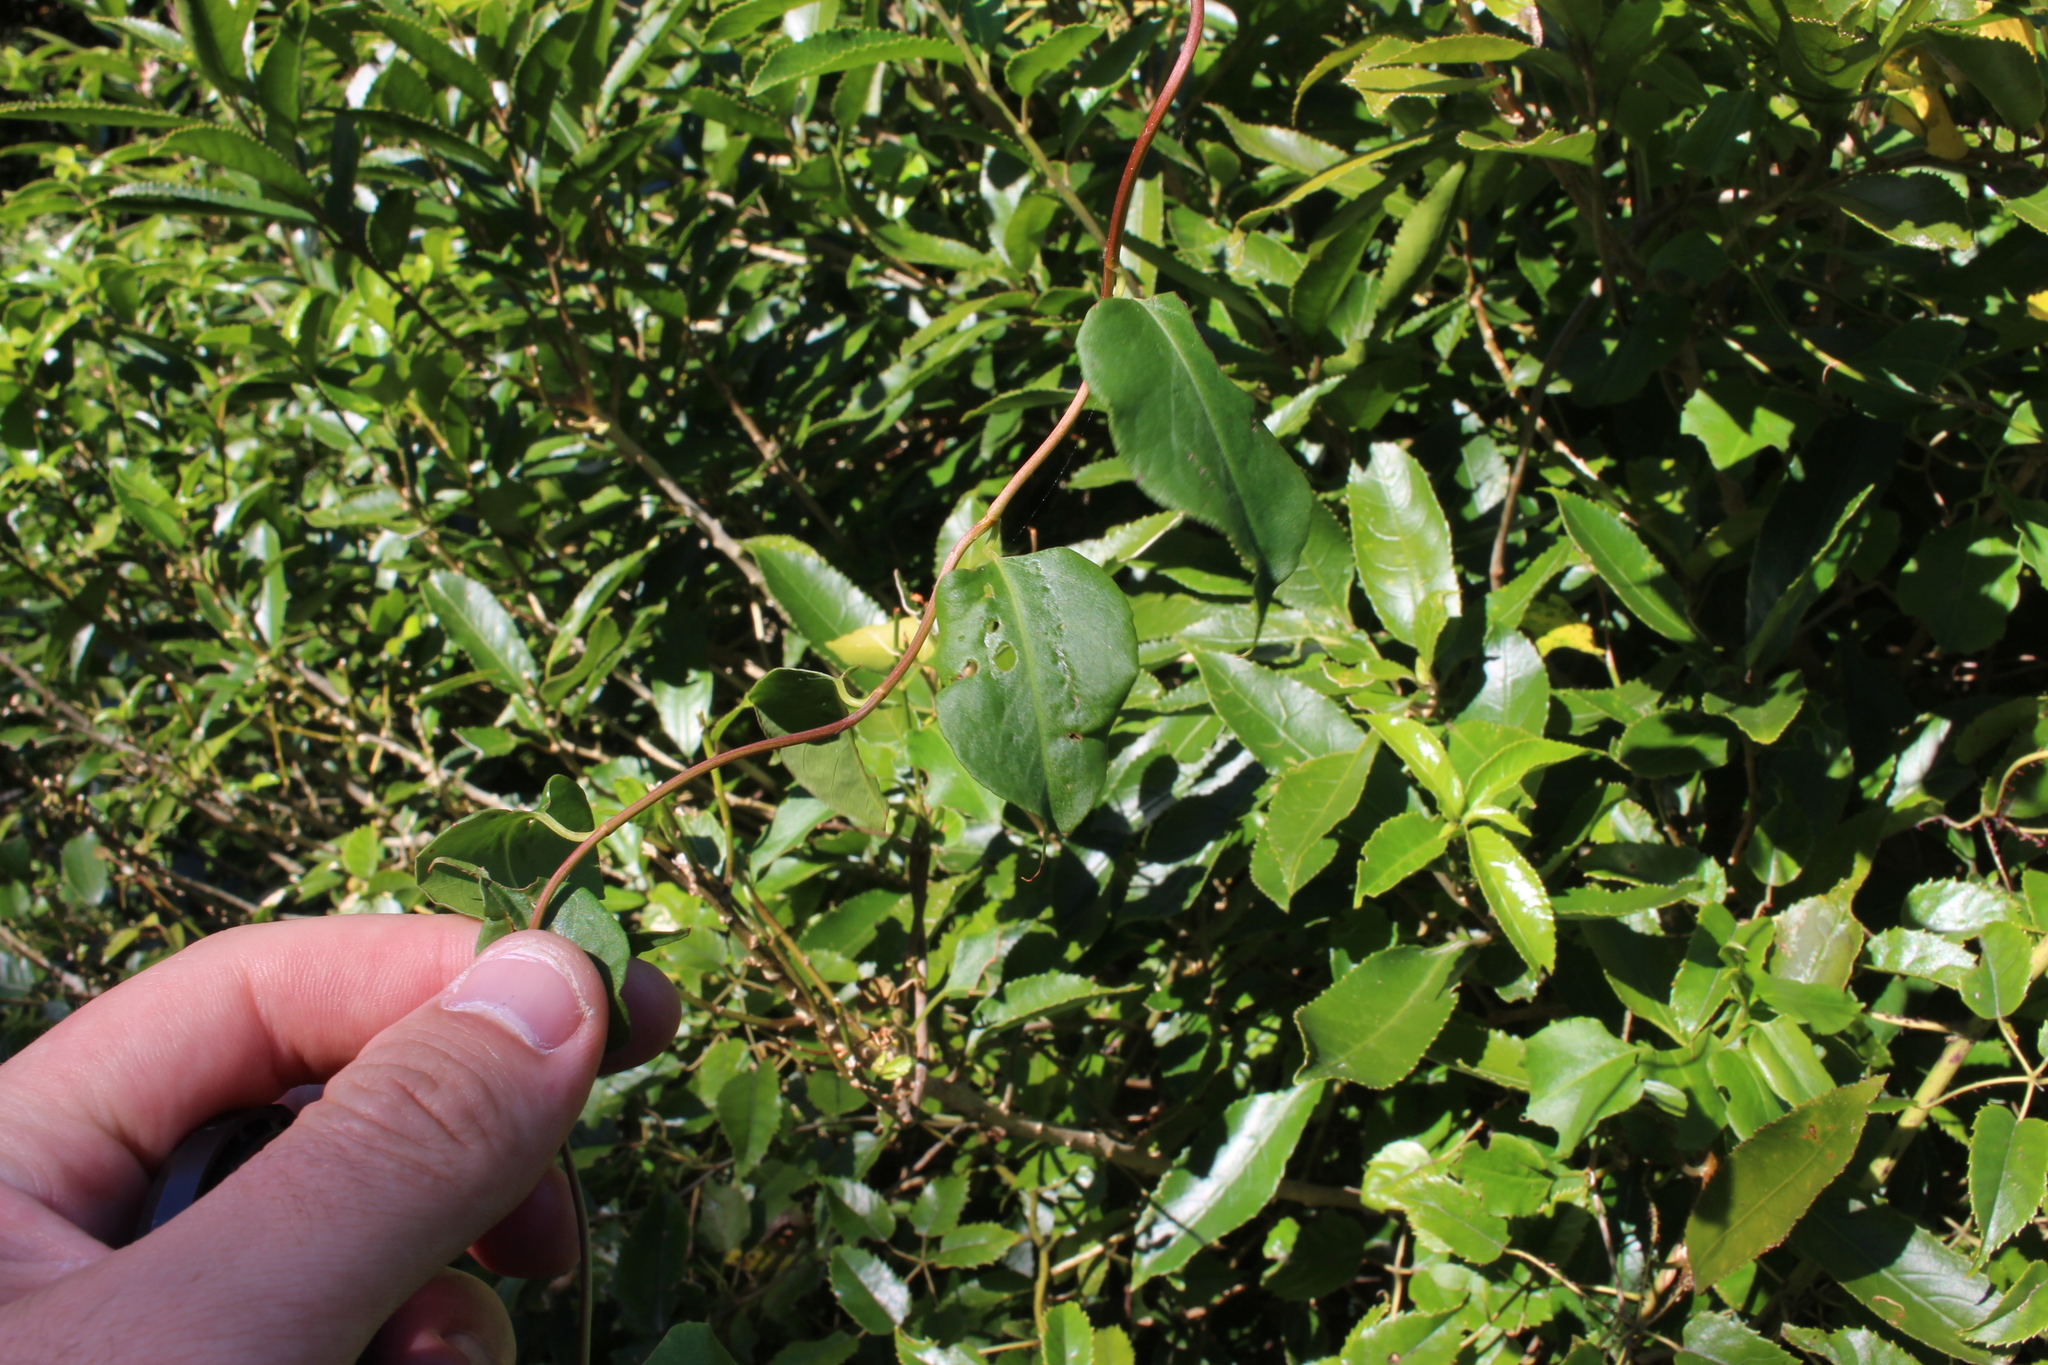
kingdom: Plantae
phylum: Tracheophyta
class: Magnoliopsida
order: Caryophyllales
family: Polygonaceae
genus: Muehlenbeckia
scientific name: Muehlenbeckia australis
